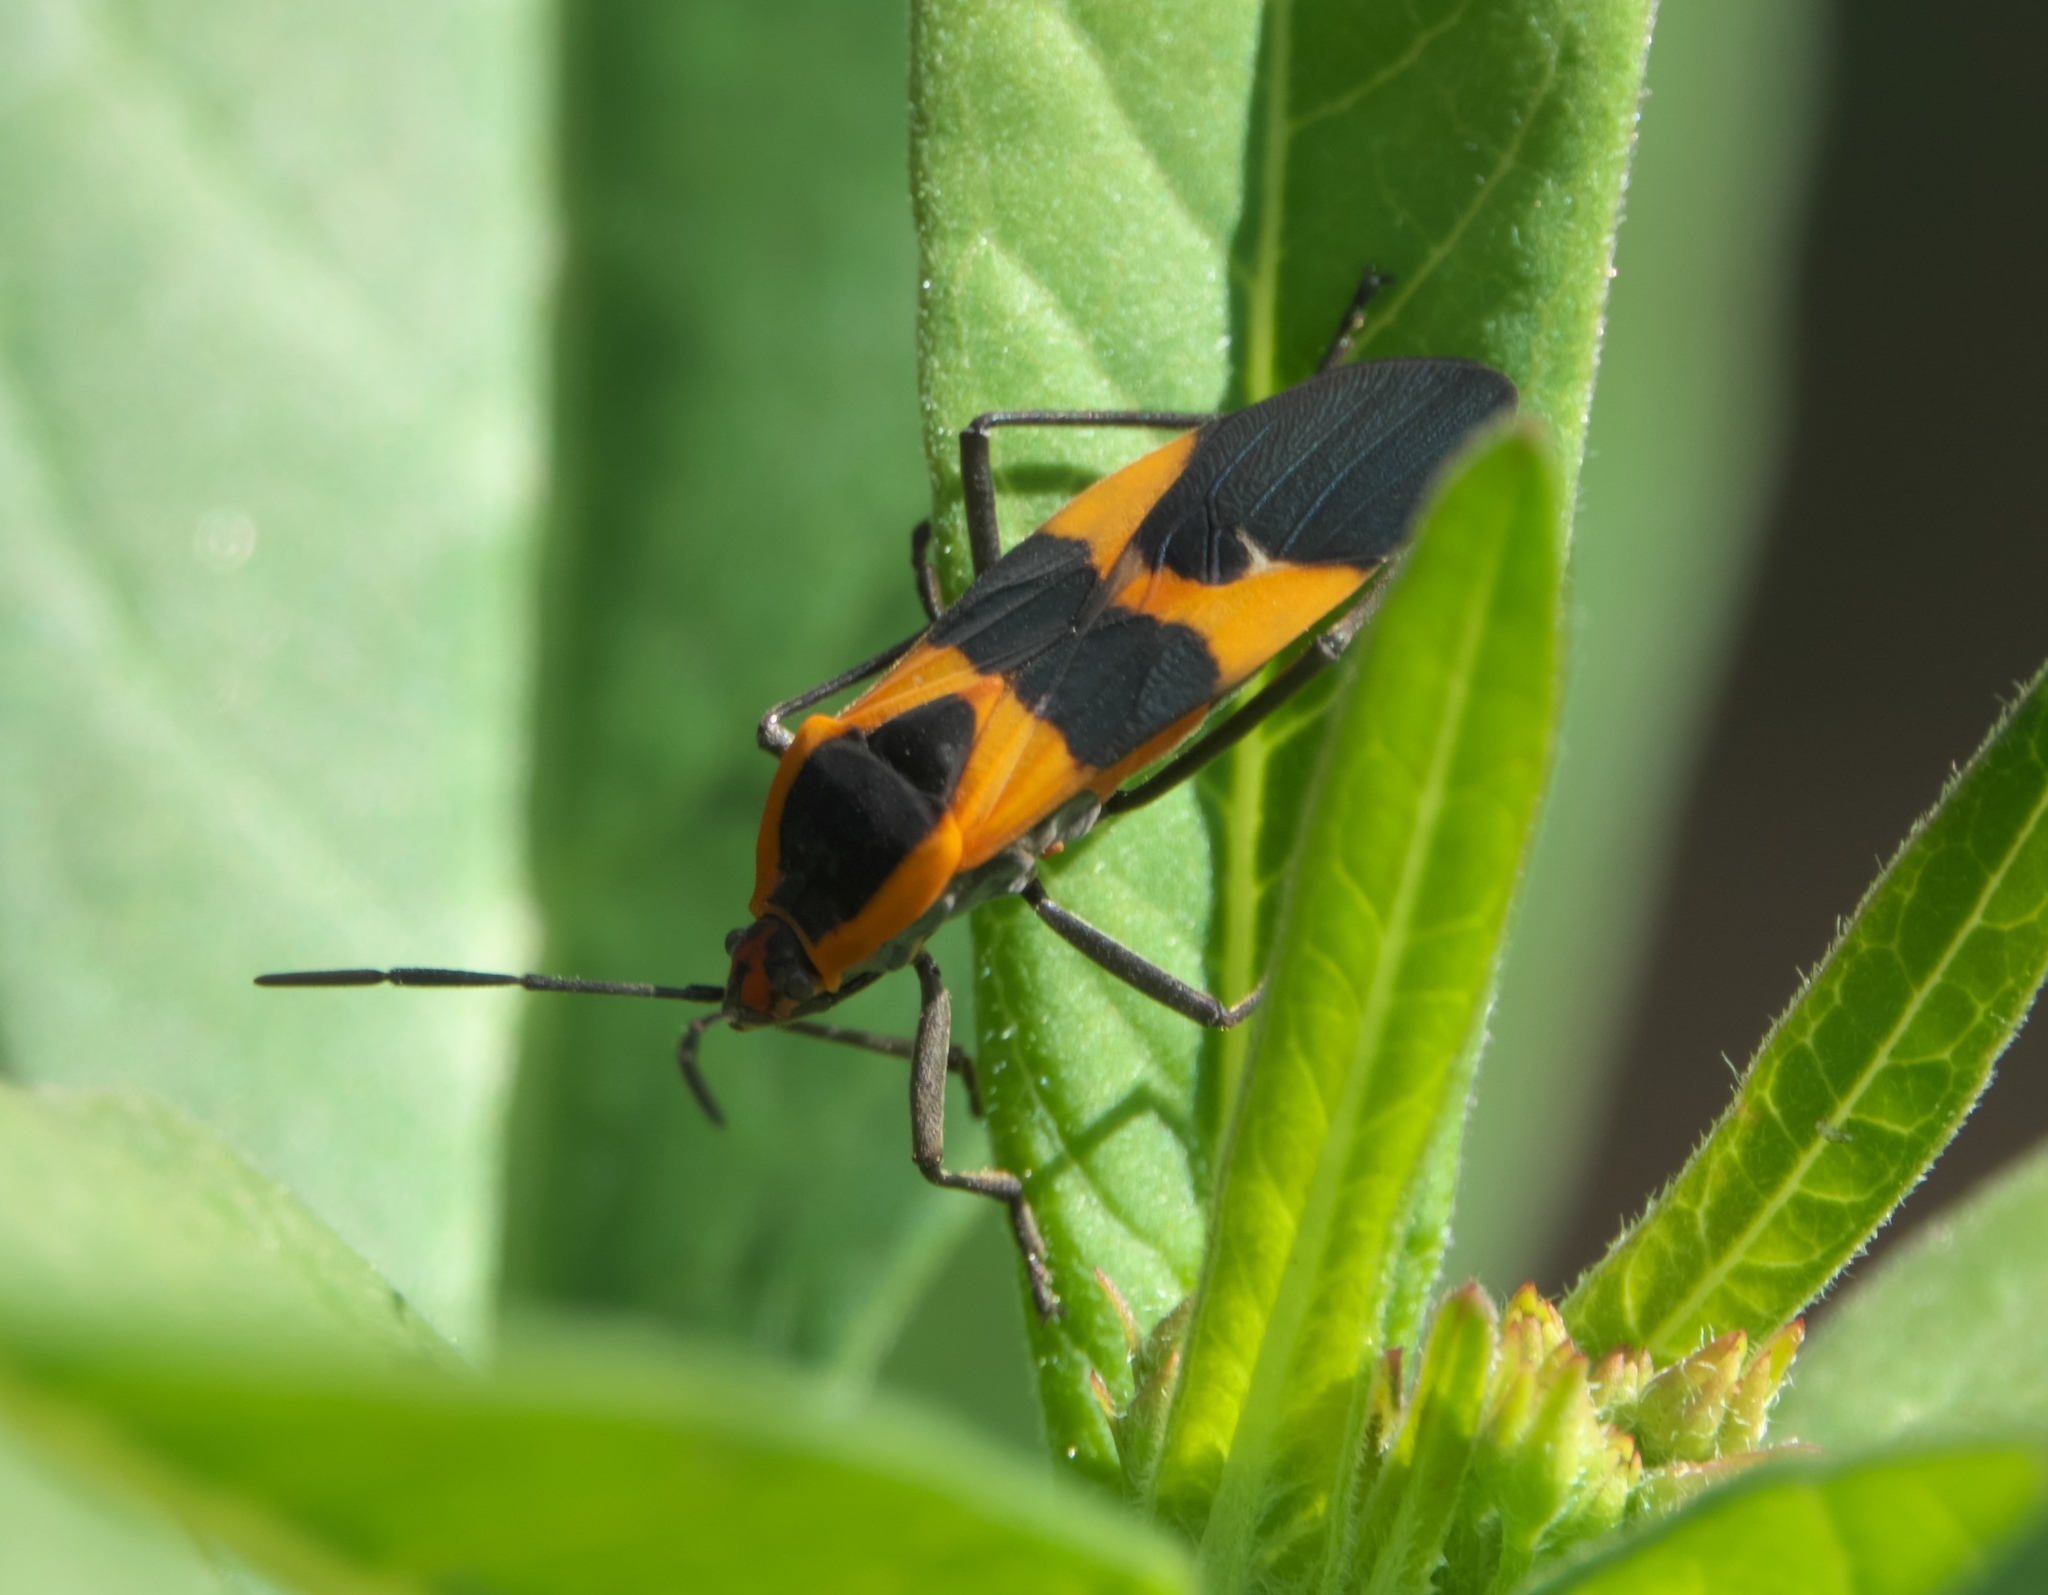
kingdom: Animalia
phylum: Arthropoda
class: Insecta
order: Hemiptera
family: Lygaeidae
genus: Oncopeltus
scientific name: Oncopeltus fasciatus
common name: Large milkweed bug
